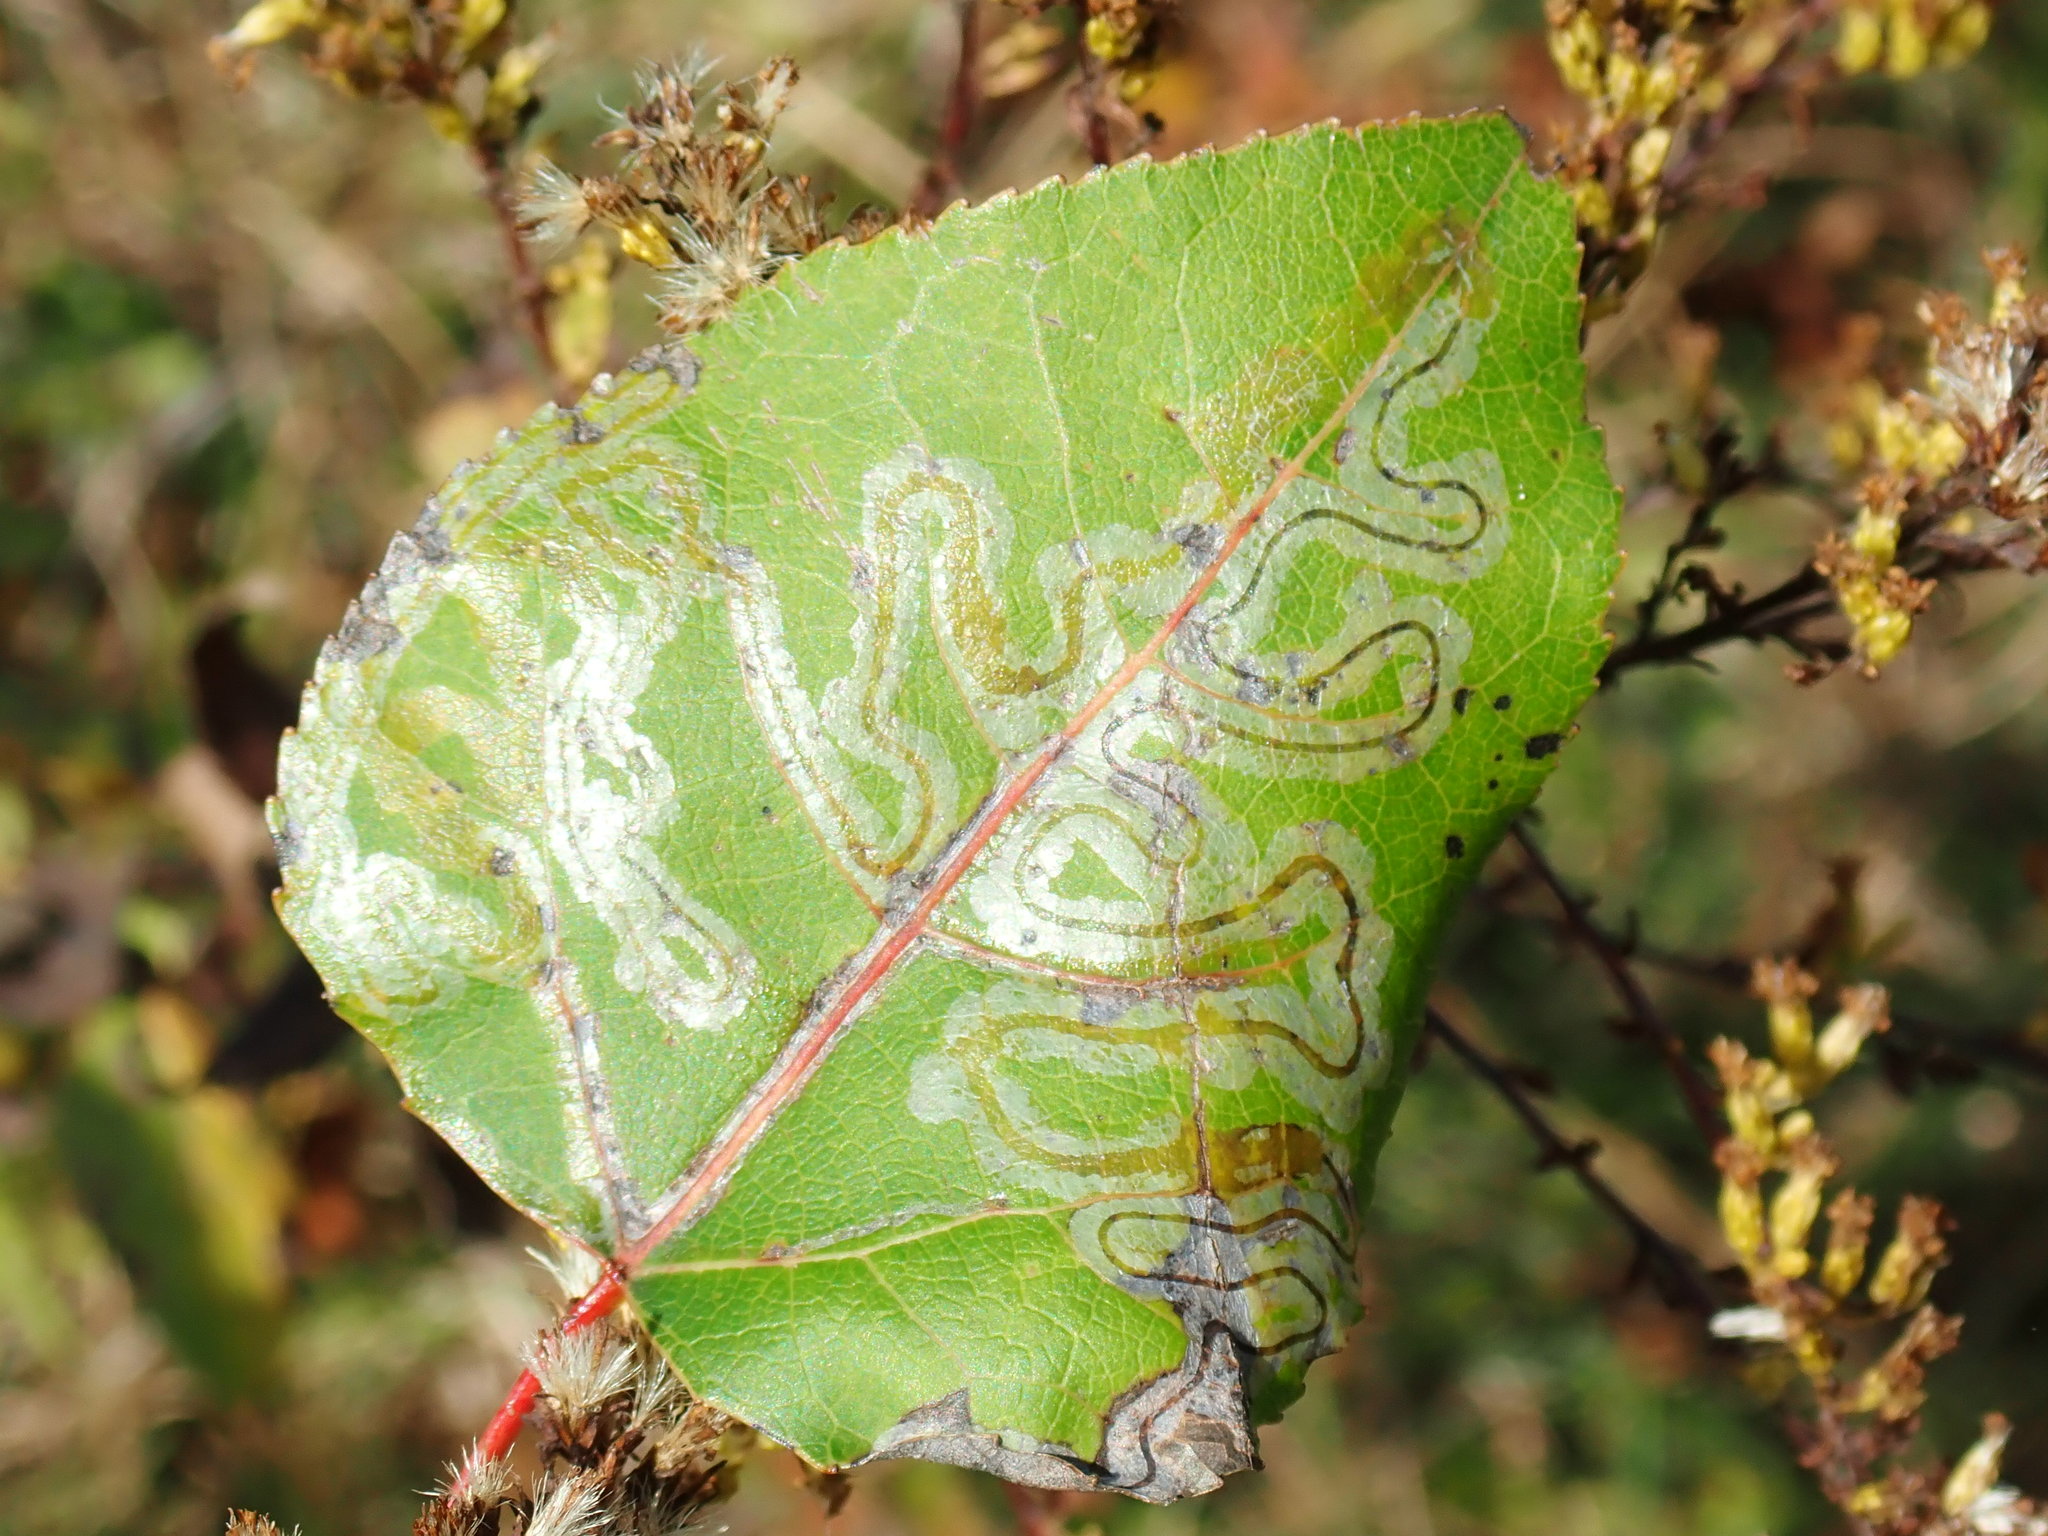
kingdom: Animalia
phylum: Arthropoda
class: Insecta
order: Lepidoptera
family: Gracillariidae
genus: Phyllocnistis
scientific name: Phyllocnistis populiella
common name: Aspen serpentine leafminer moth
